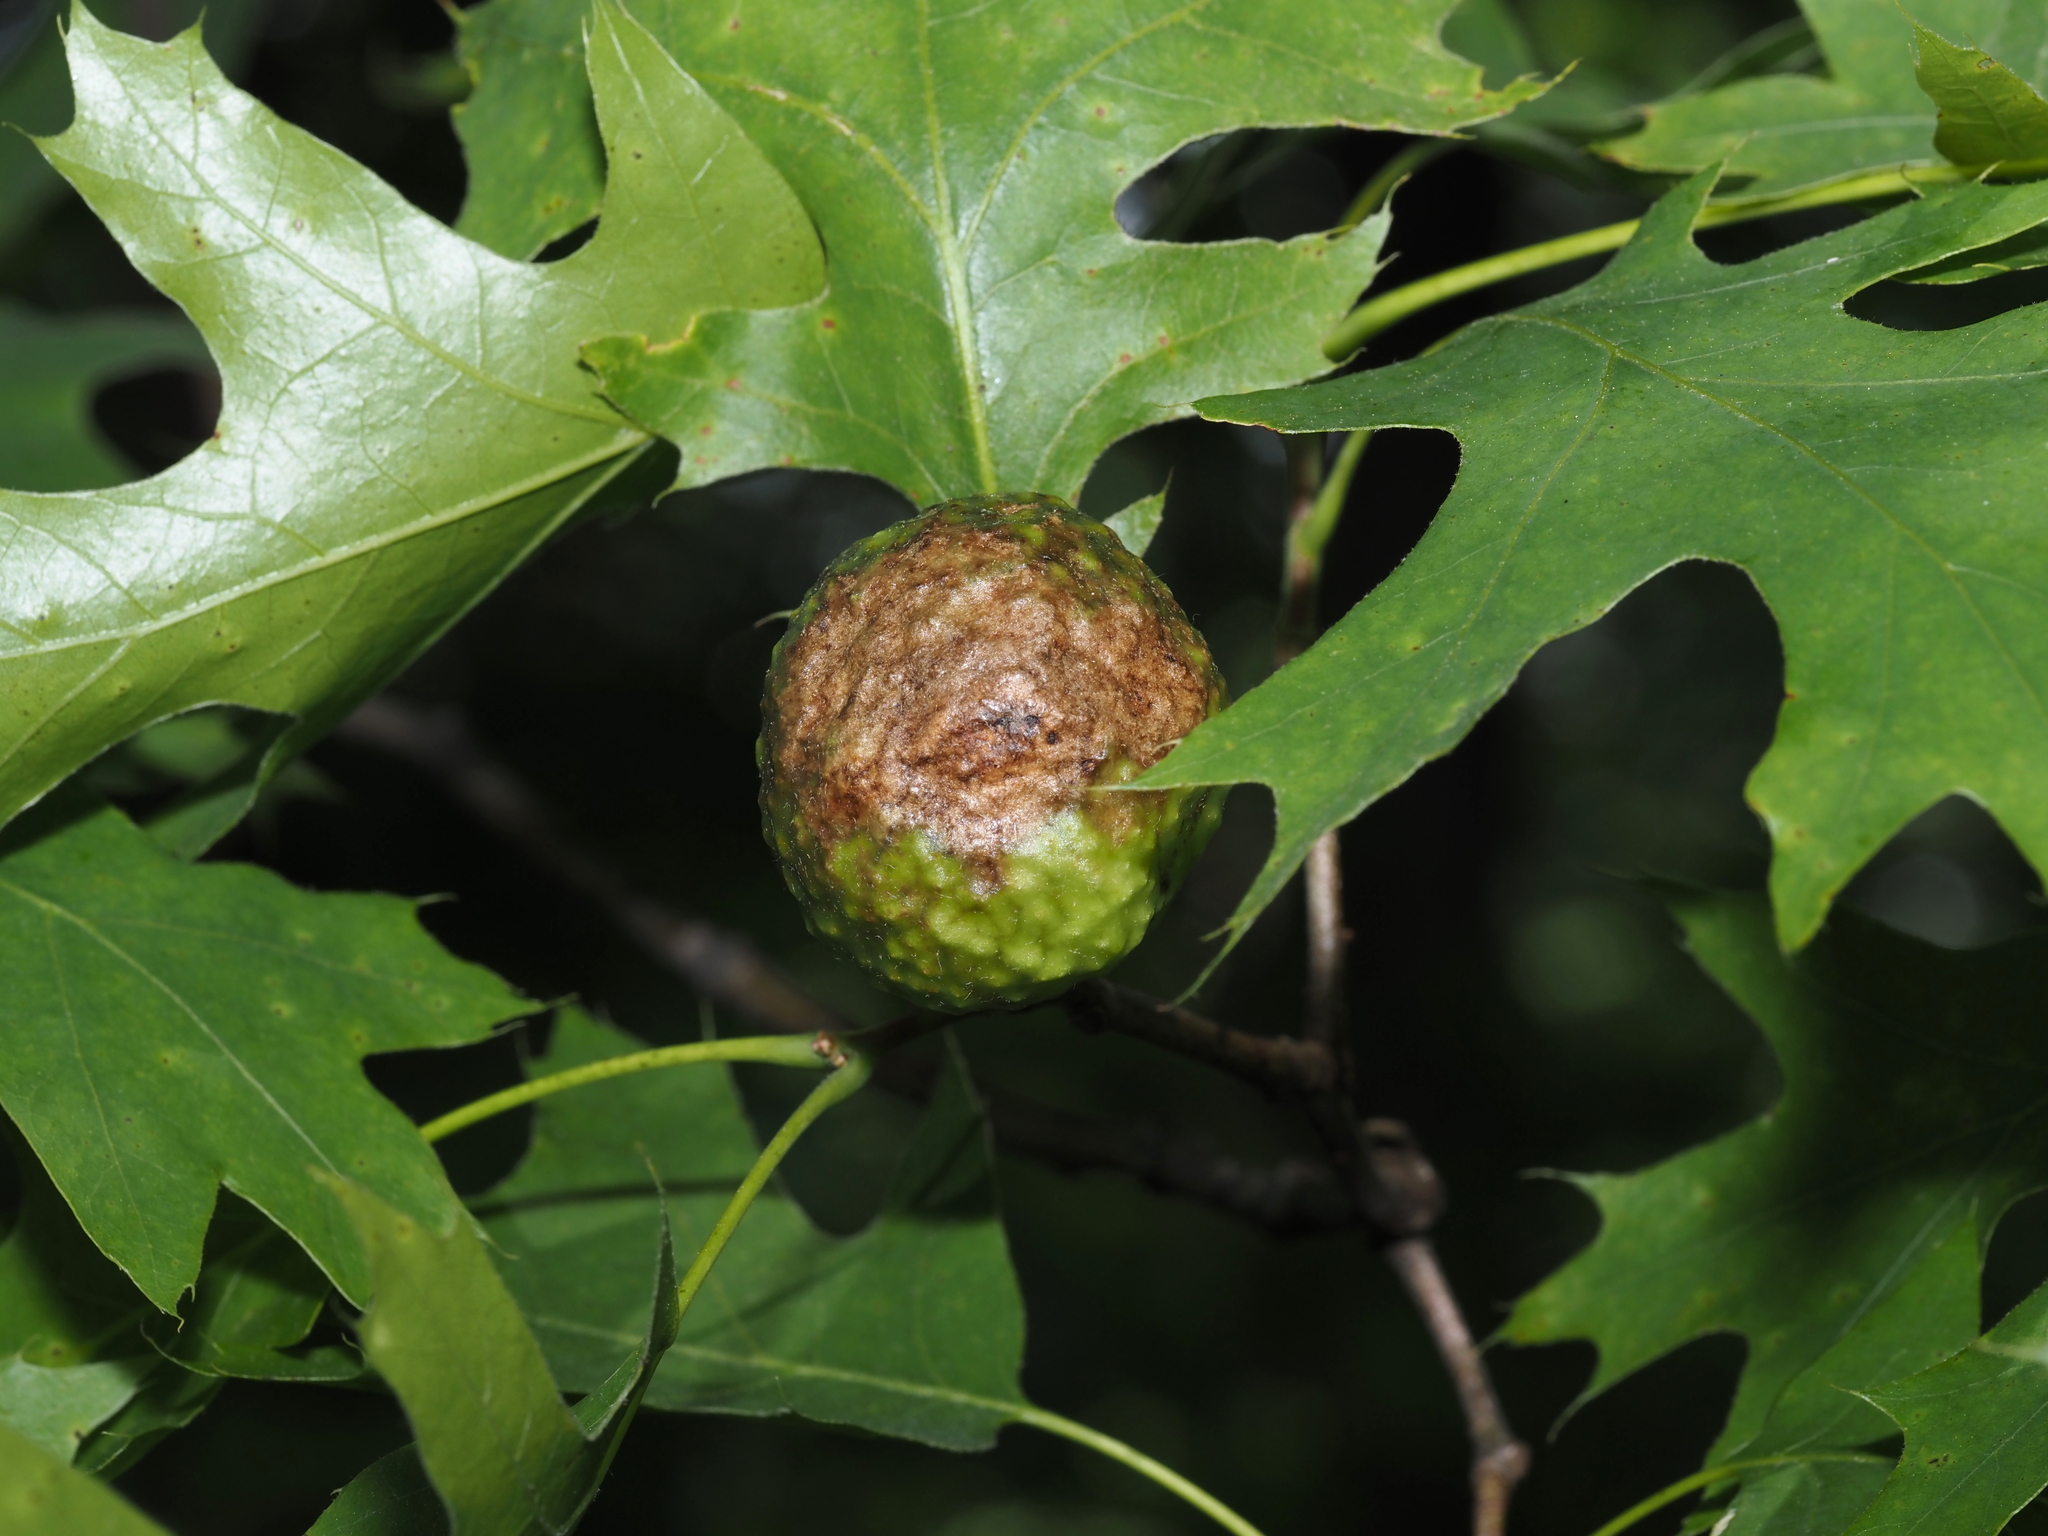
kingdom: Animalia
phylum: Arthropoda
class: Insecta
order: Hymenoptera
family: Cynipidae
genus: Amphibolips
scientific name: Amphibolips
